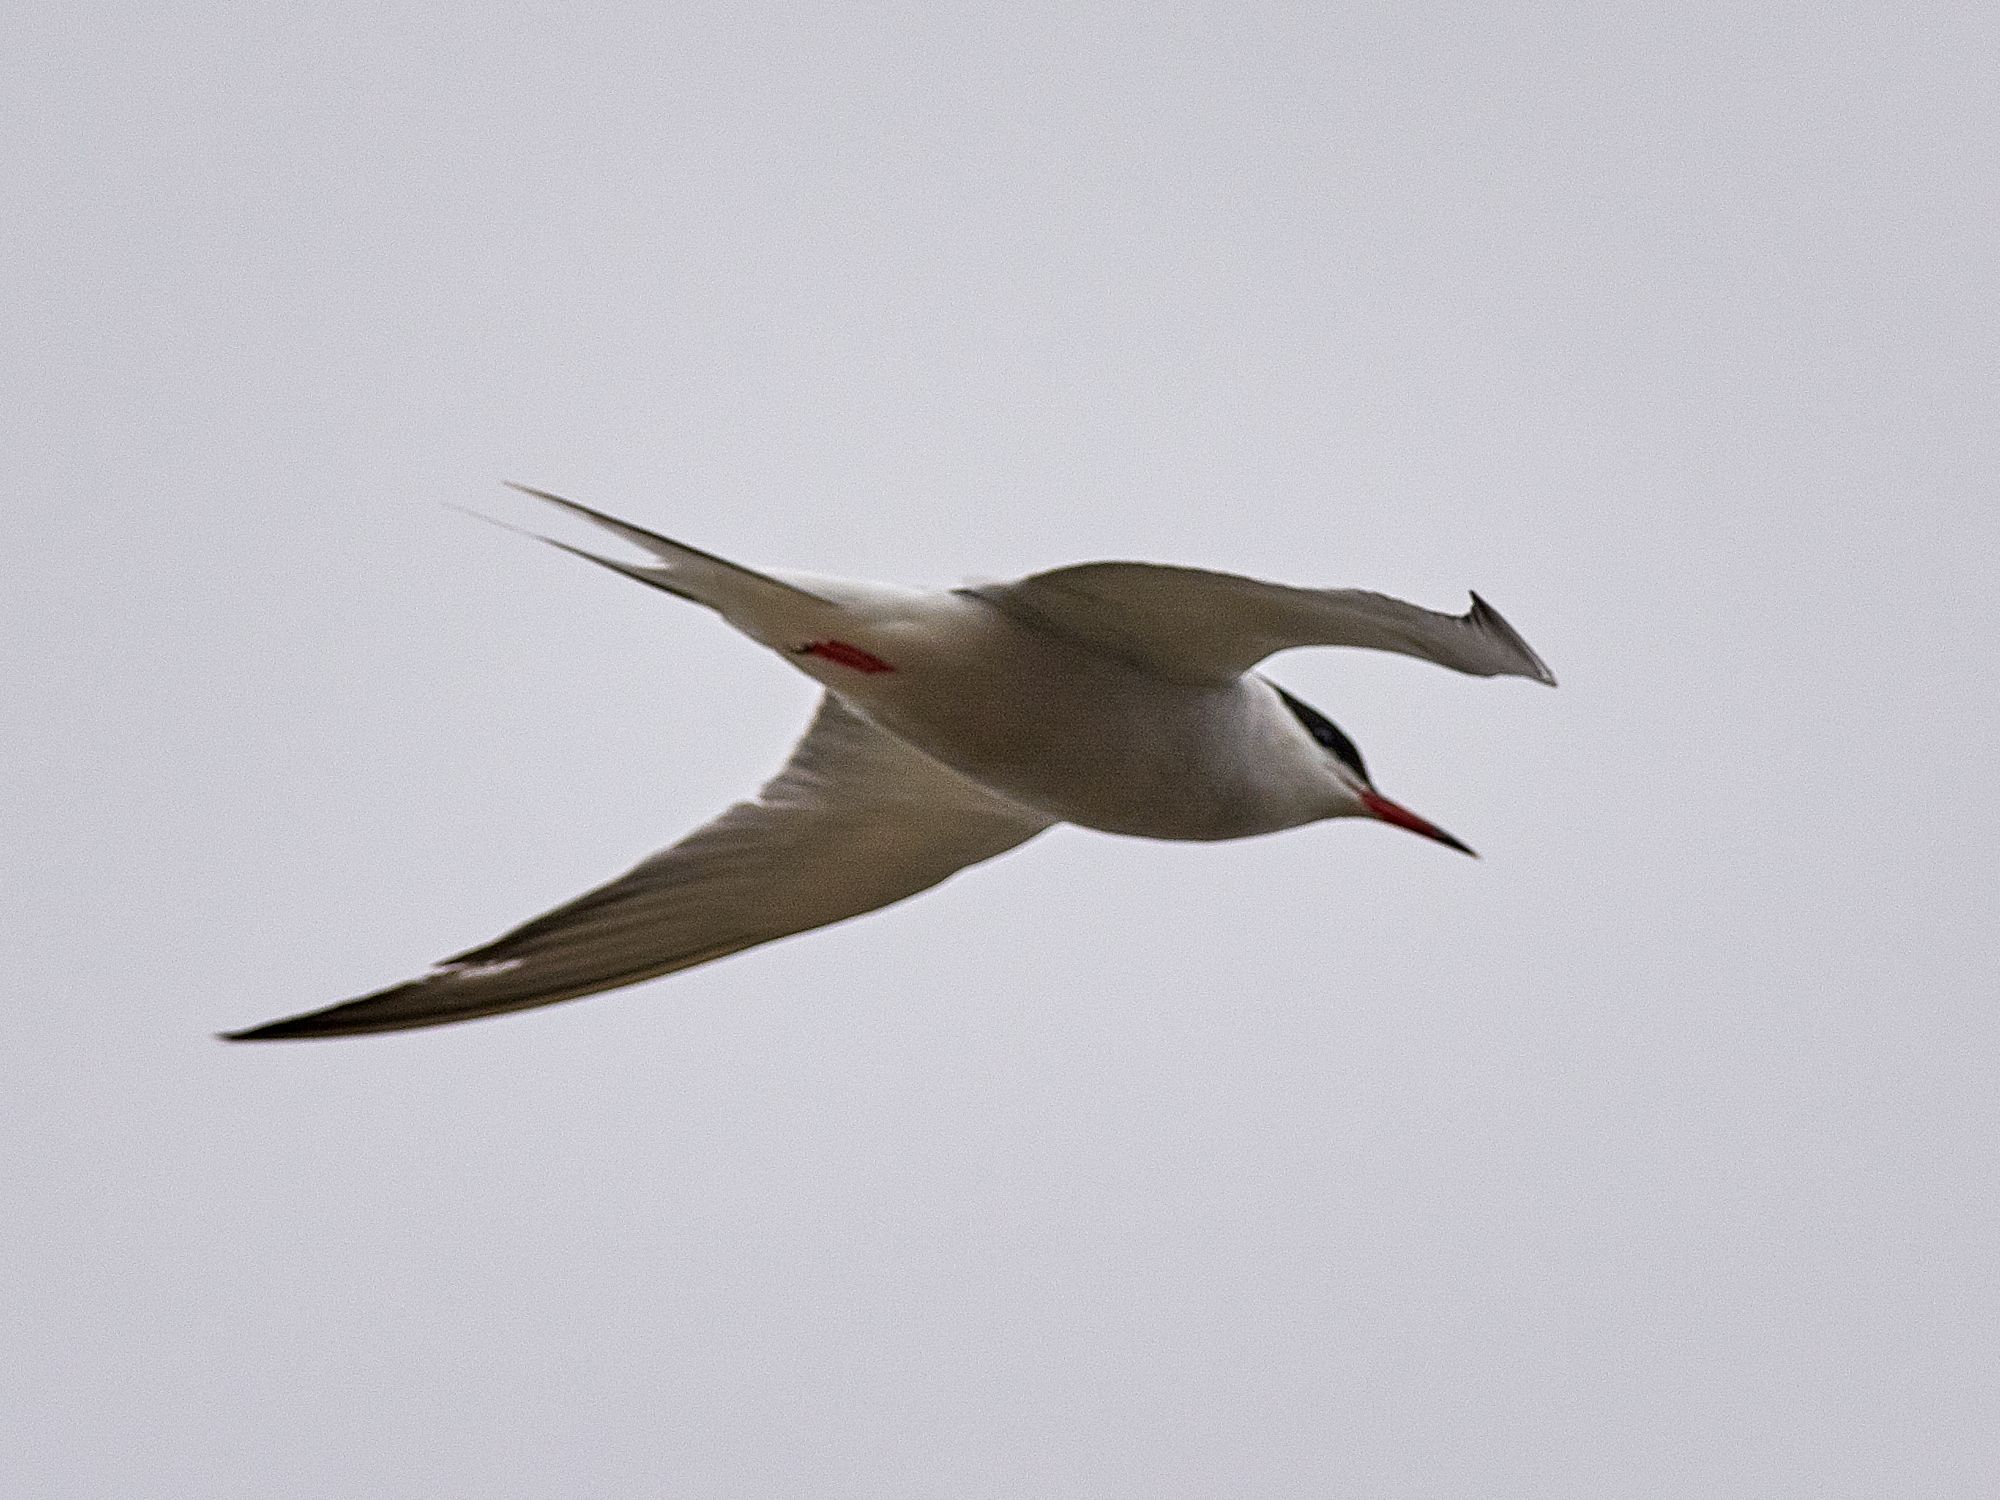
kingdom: Animalia
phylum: Chordata
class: Aves
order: Charadriiformes
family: Laridae
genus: Sterna
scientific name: Sterna hirundo
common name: Common tern
